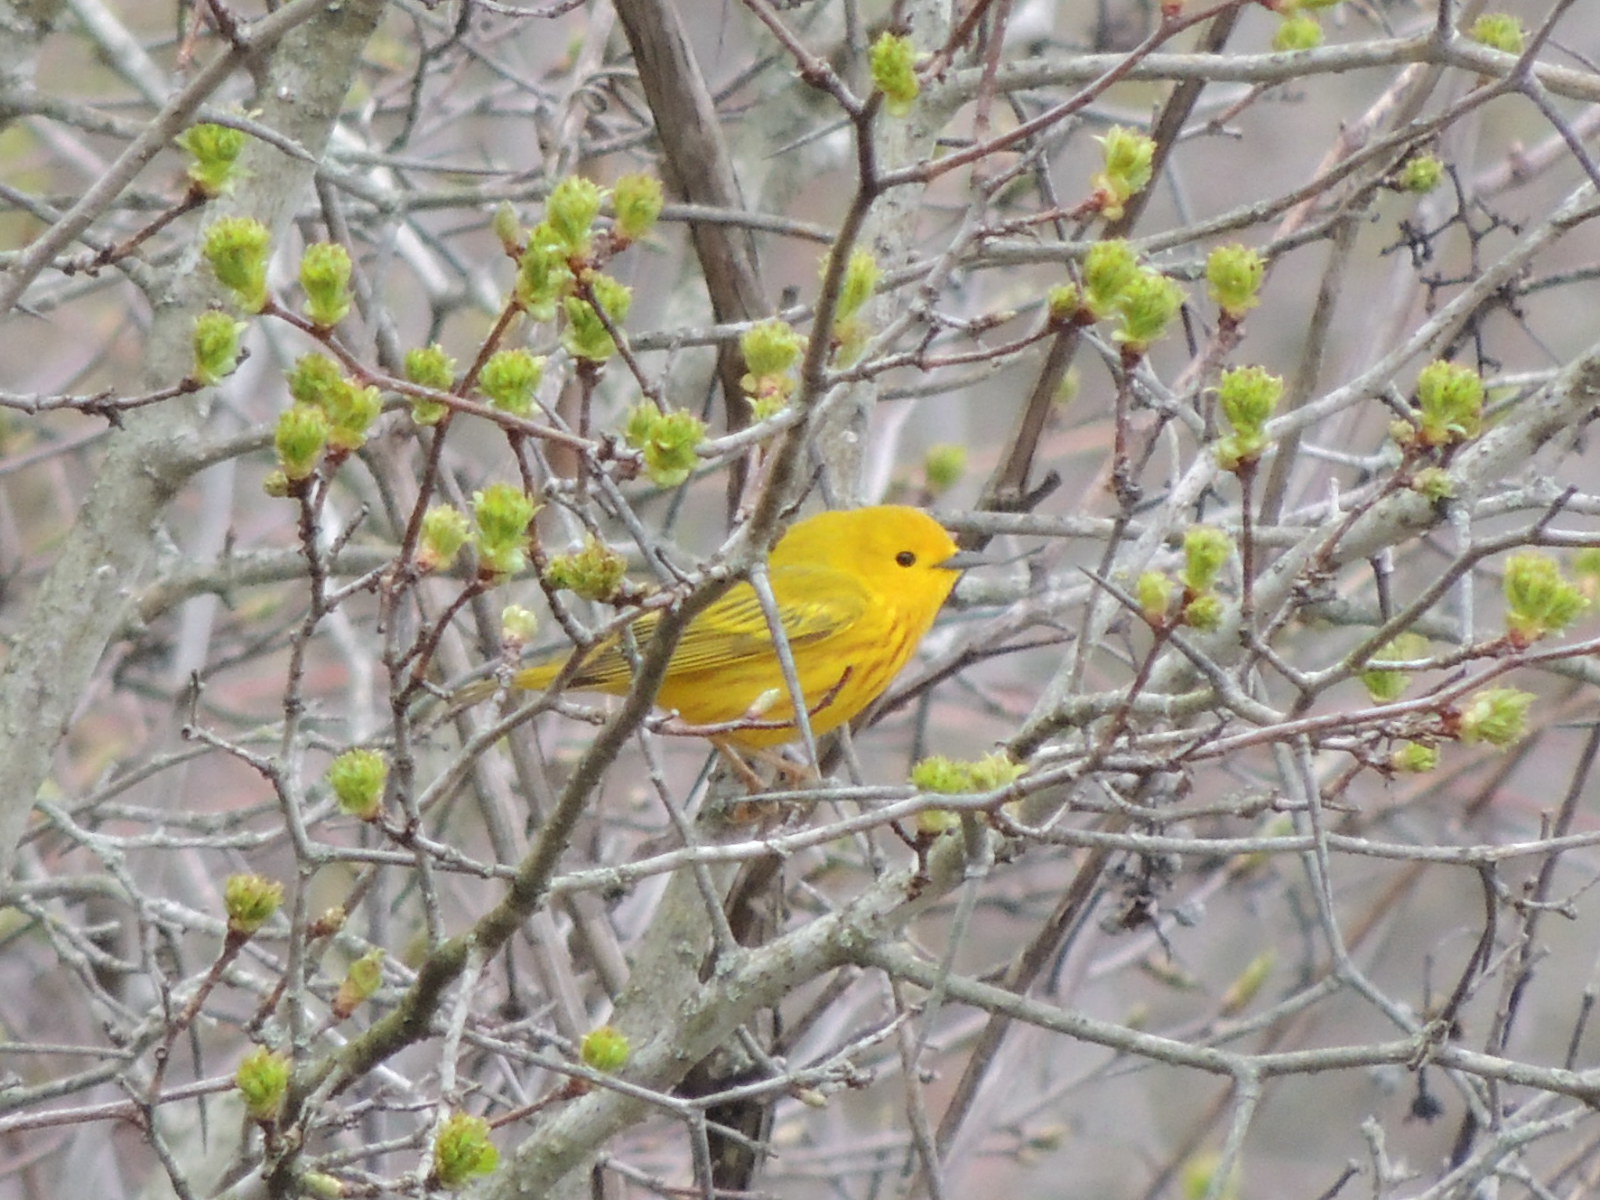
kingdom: Animalia
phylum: Chordata
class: Aves
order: Passeriformes
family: Parulidae
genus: Setophaga
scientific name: Setophaga petechia
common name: Yellow warbler
